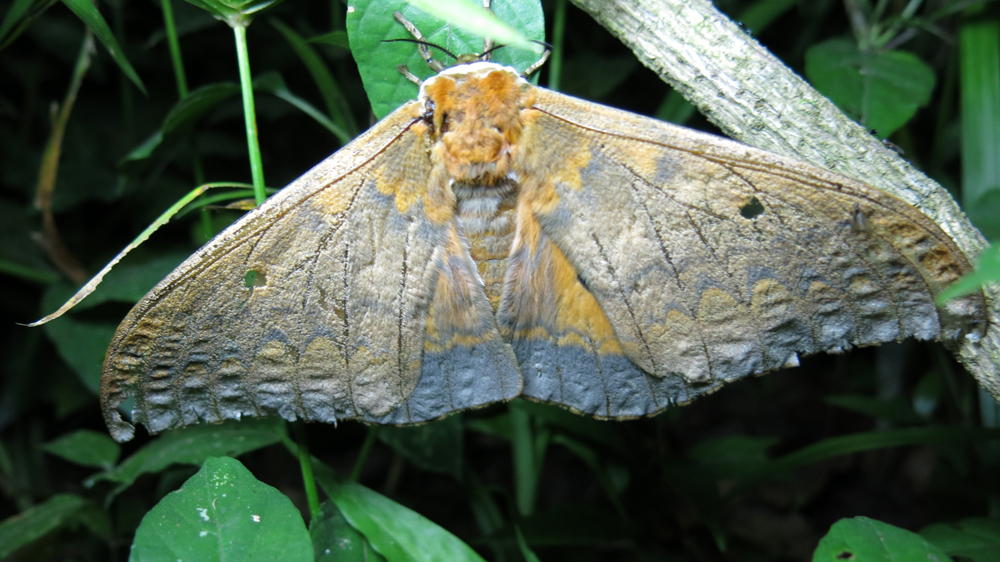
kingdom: Animalia
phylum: Arthropoda
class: Insecta
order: Lepidoptera
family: Saturniidae
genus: Pseudobunaea
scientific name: Pseudobunaea tyrrhena
